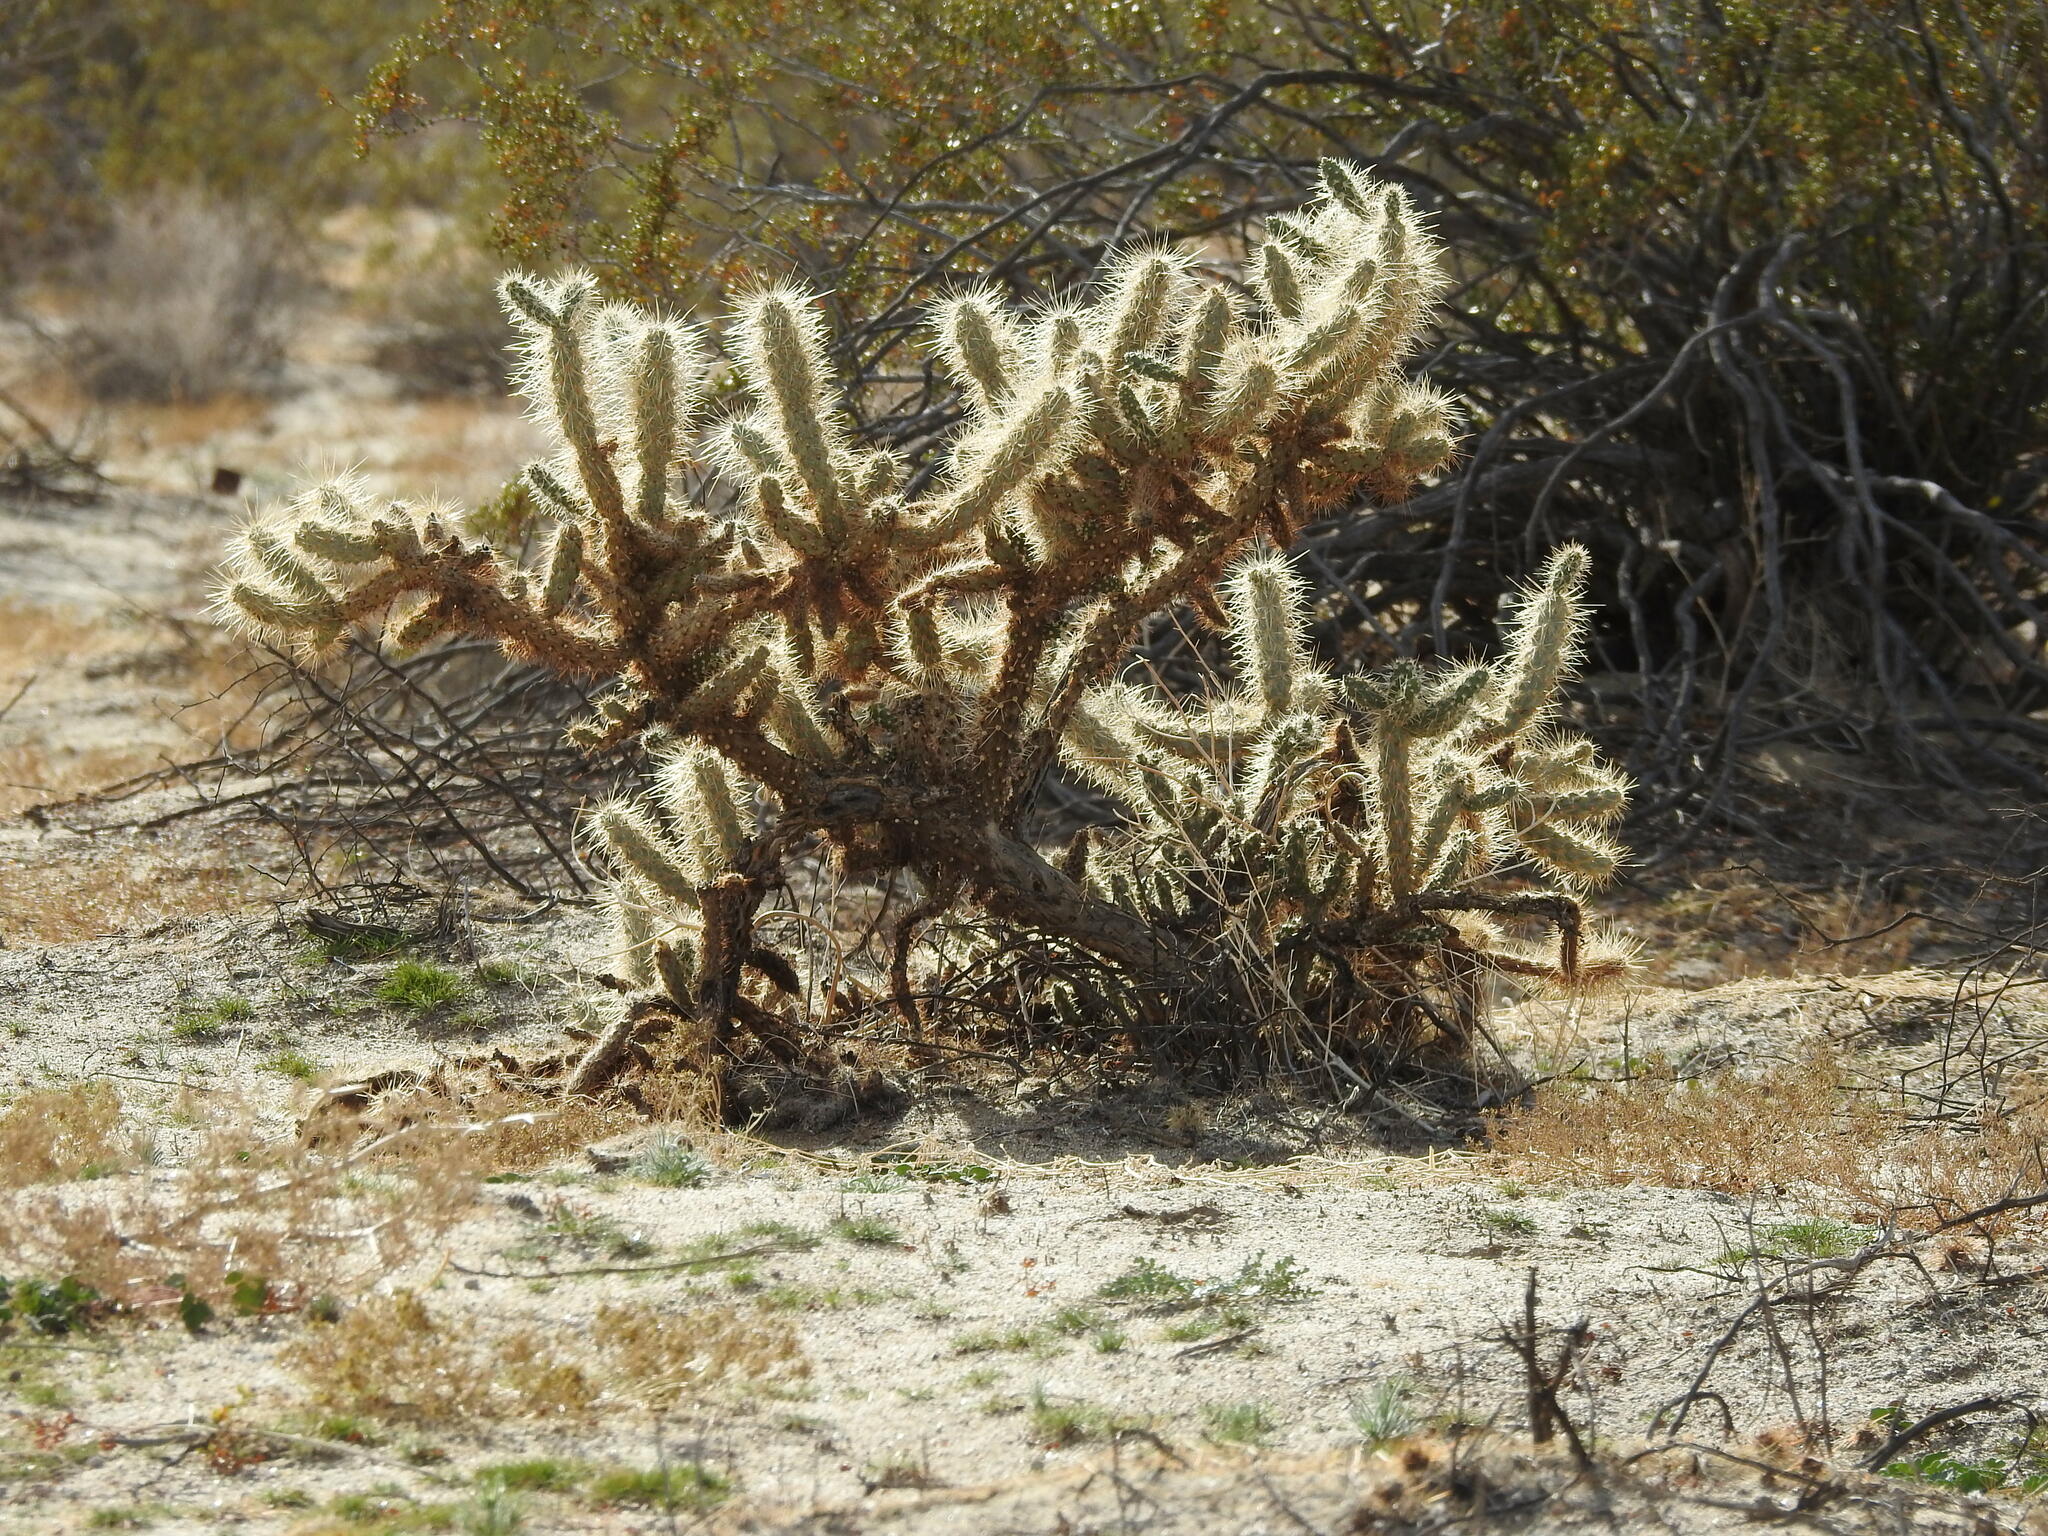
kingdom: Plantae
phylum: Tracheophyta
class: Magnoliopsida
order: Caryophyllales
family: Cactaceae
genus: Cylindropuntia
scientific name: Cylindropuntia ganderi
